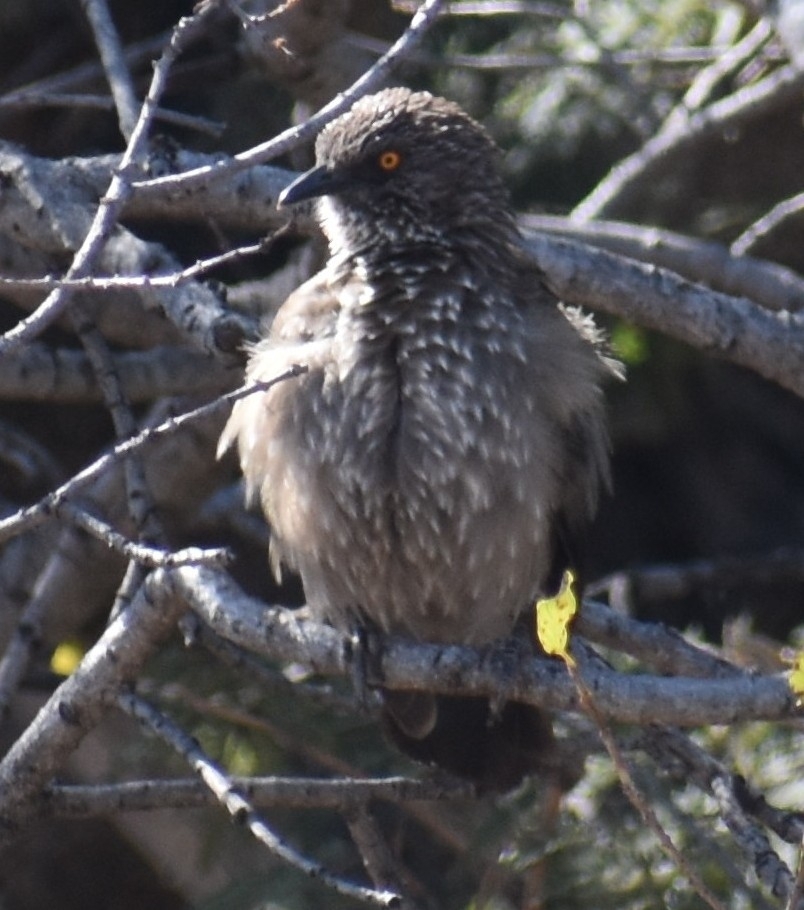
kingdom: Animalia
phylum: Chordata
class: Aves
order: Passeriformes
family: Leiothrichidae
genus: Turdoides
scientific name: Turdoides jardineii
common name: Arrow-marked babbler
